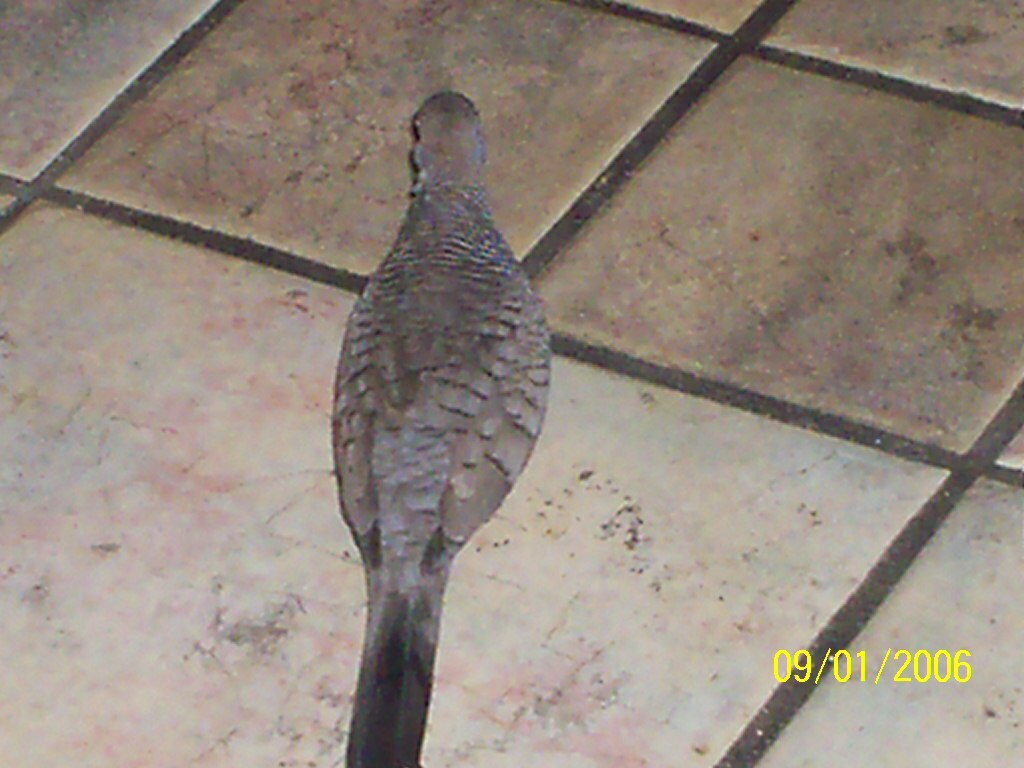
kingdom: Animalia
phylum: Chordata
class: Aves
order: Columbiformes
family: Columbidae
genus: Geopelia
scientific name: Geopelia striata
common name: Zebra dove
